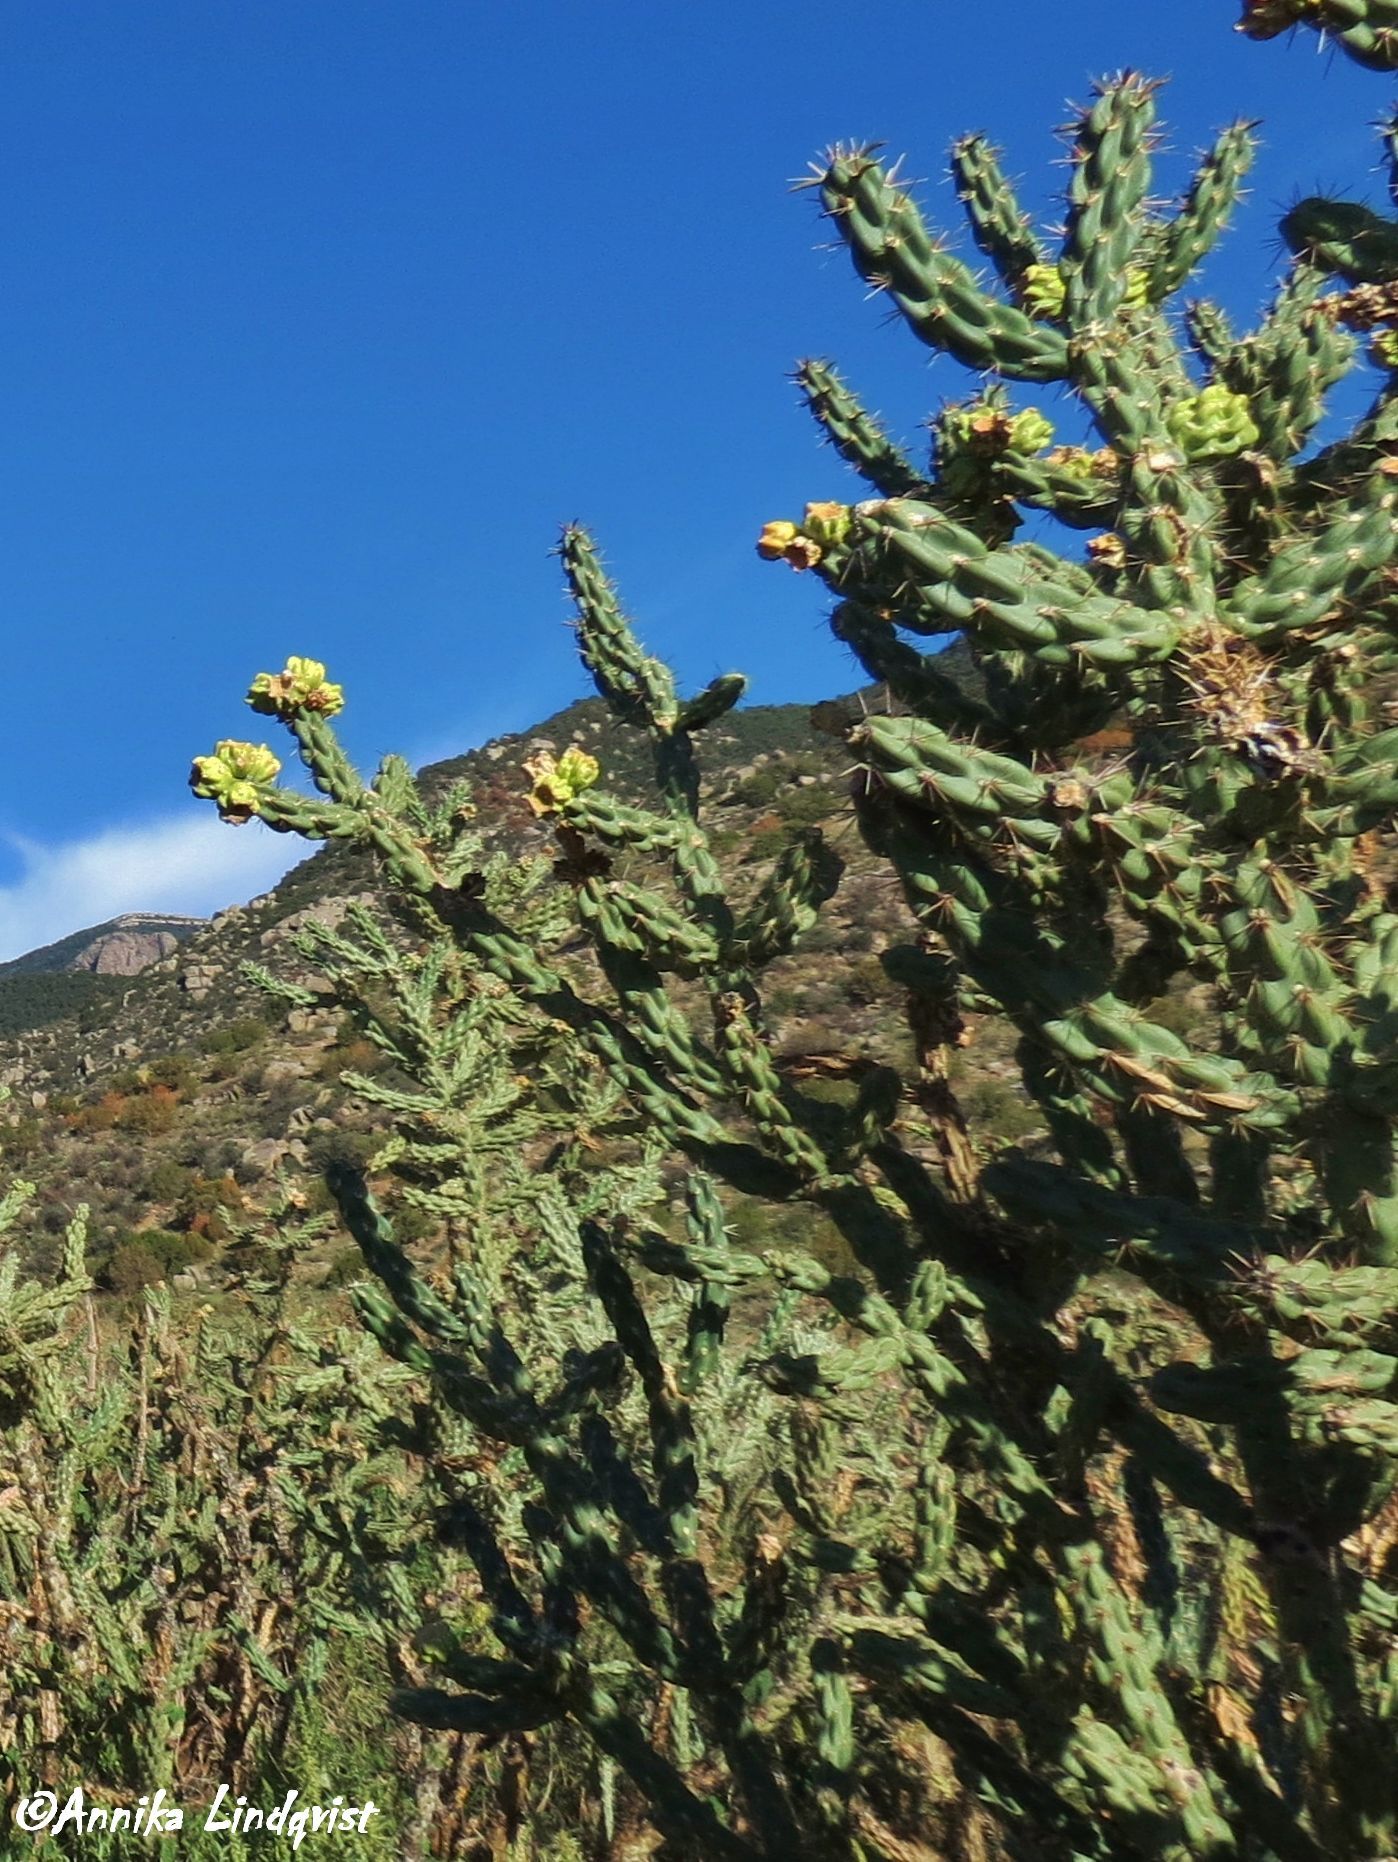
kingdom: Plantae
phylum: Tracheophyta
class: Magnoliopsida
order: Caryophyllales
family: Cactaceae
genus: Cylindropuntia
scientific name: Cylindropuntia imbricata
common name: Candelabrum cactus
